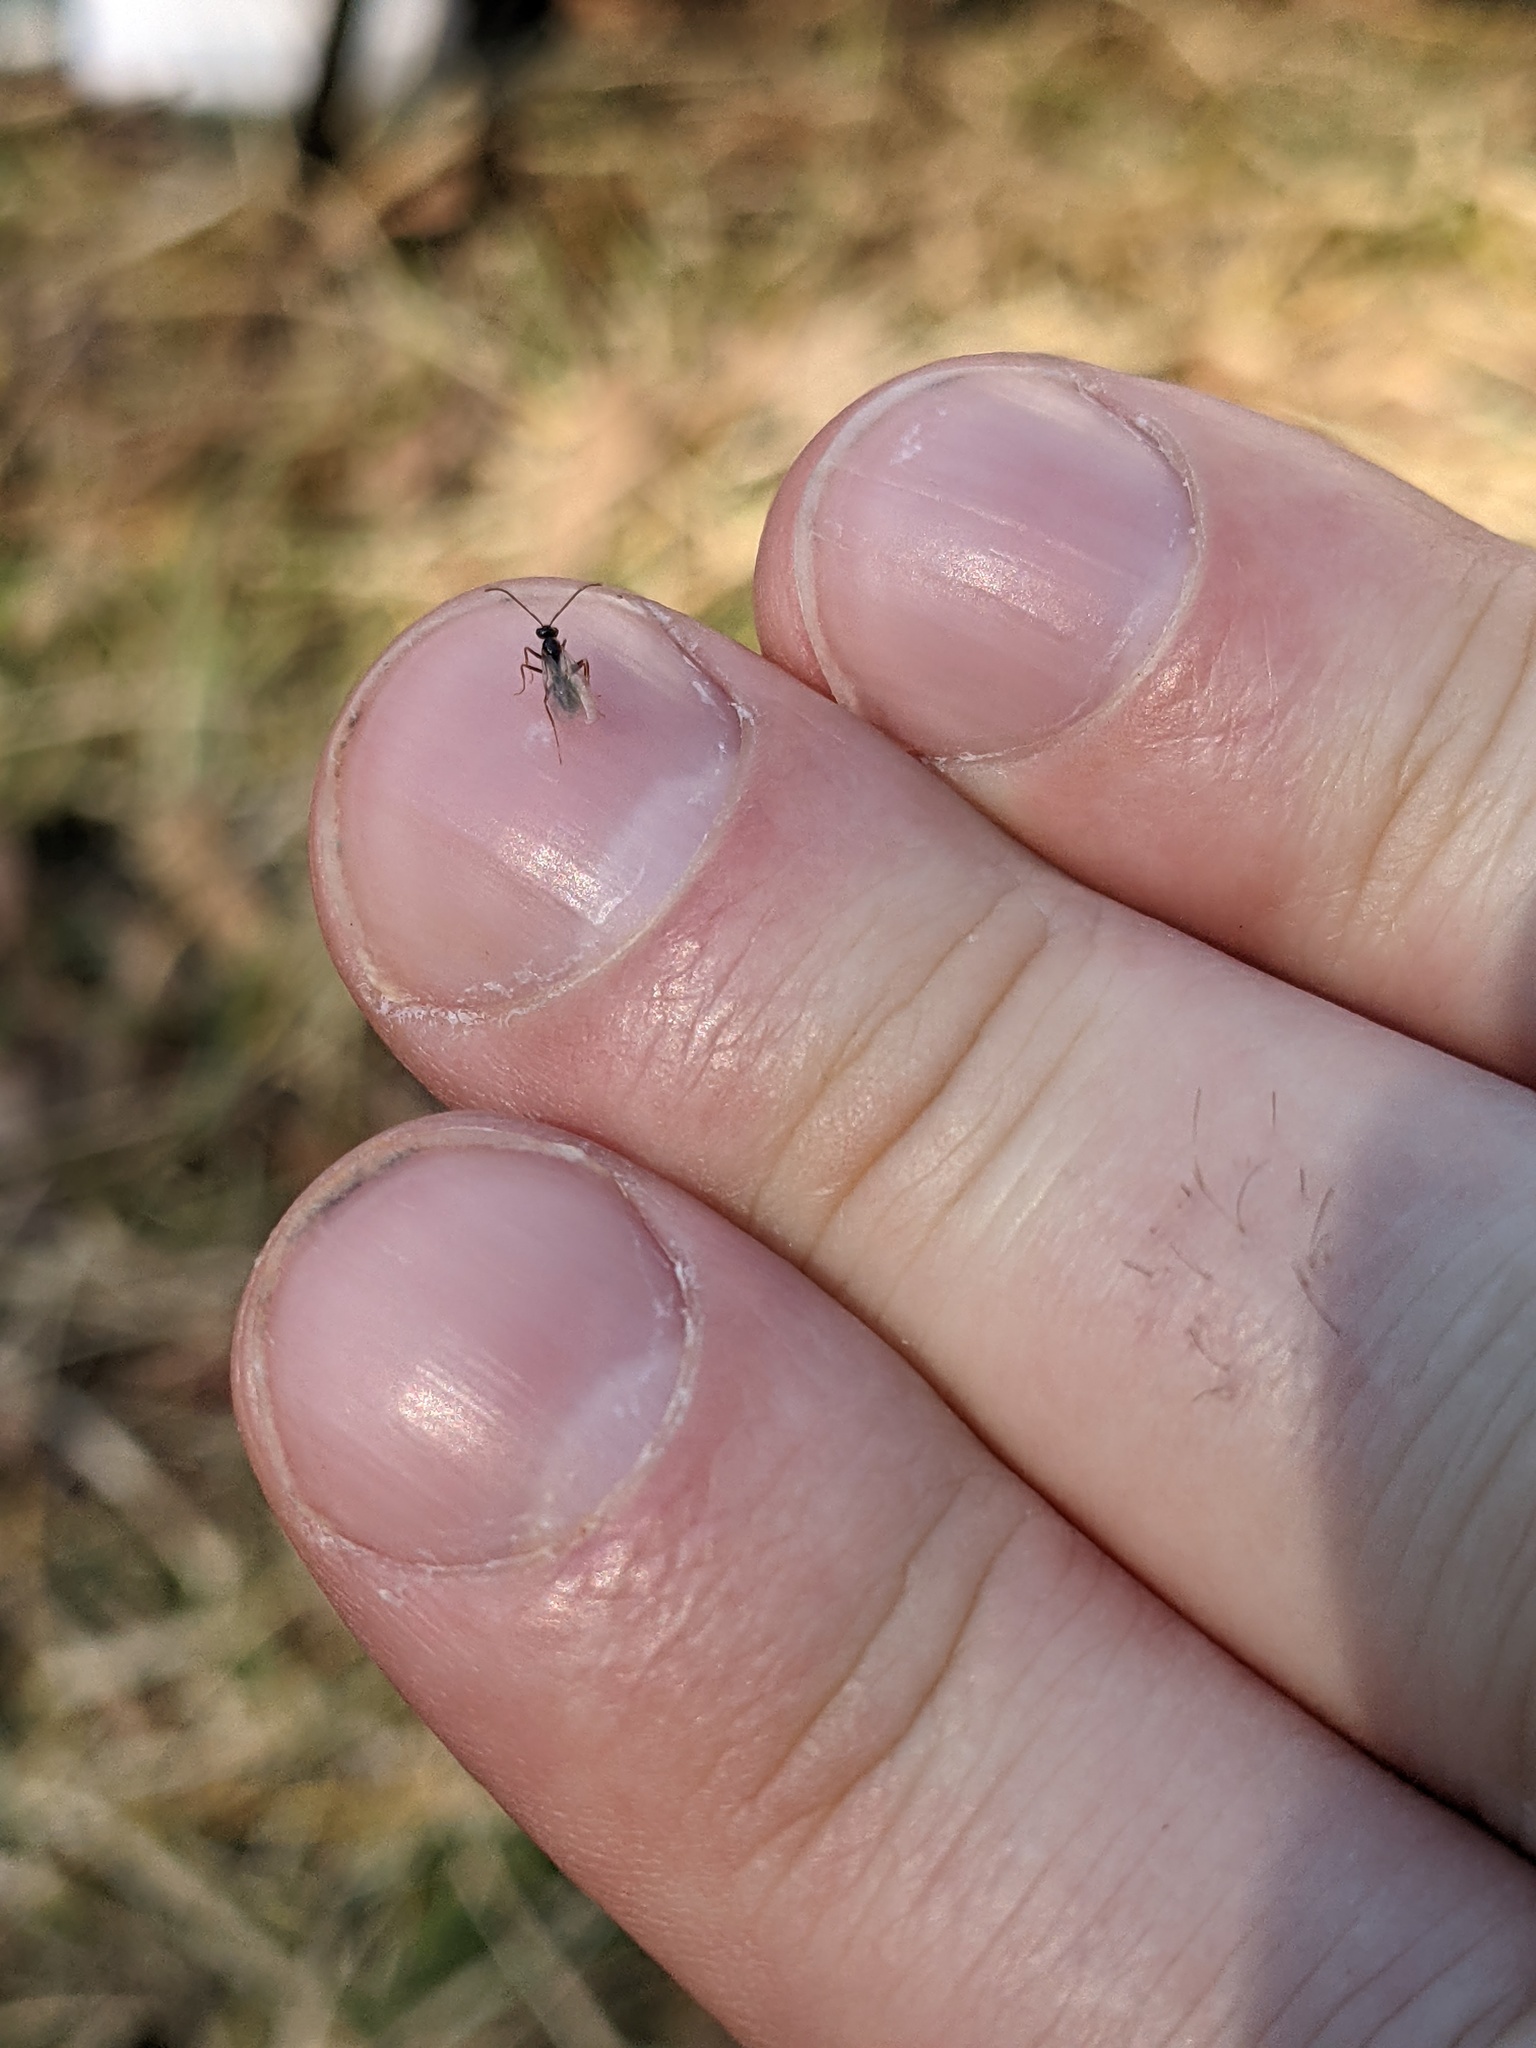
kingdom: Animalia
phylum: Arthropoda
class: Insecta
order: Hymenoptera
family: Formicidae
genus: Prenolepis
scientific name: Prenolepis imparis
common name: Small honey ant
